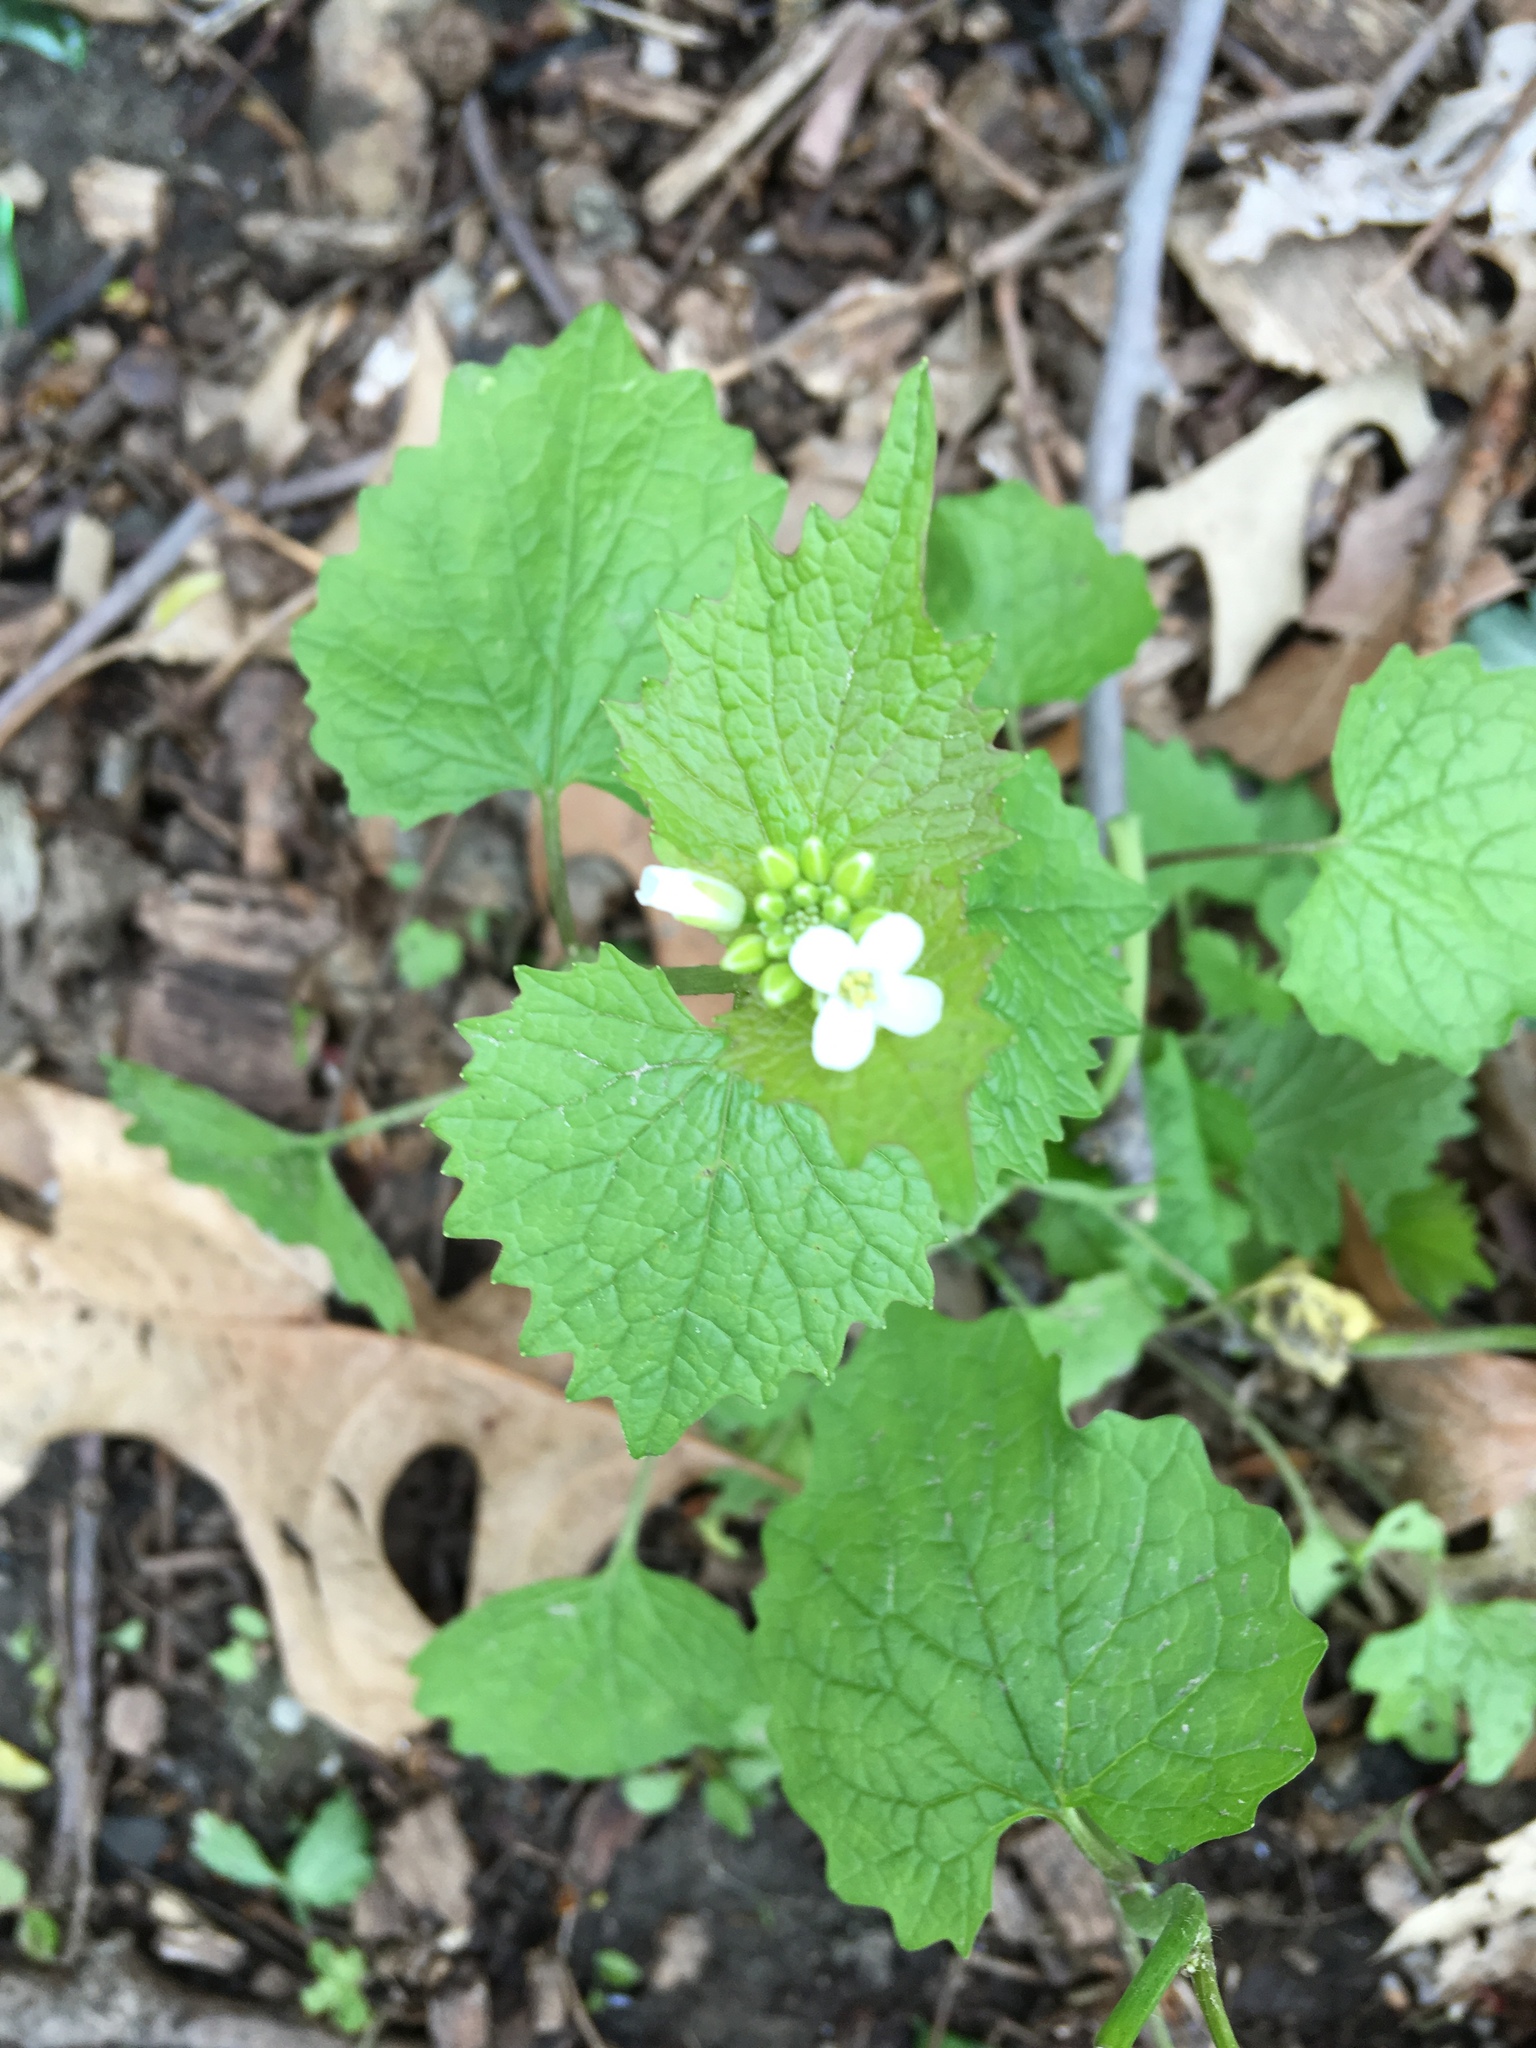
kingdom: Plantae
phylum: Tracheophyta
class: Magnoliopsida
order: Brassicales
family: Brassicaceae
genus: Alliaria
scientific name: Alliaria petiolata
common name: Garlic mustard
